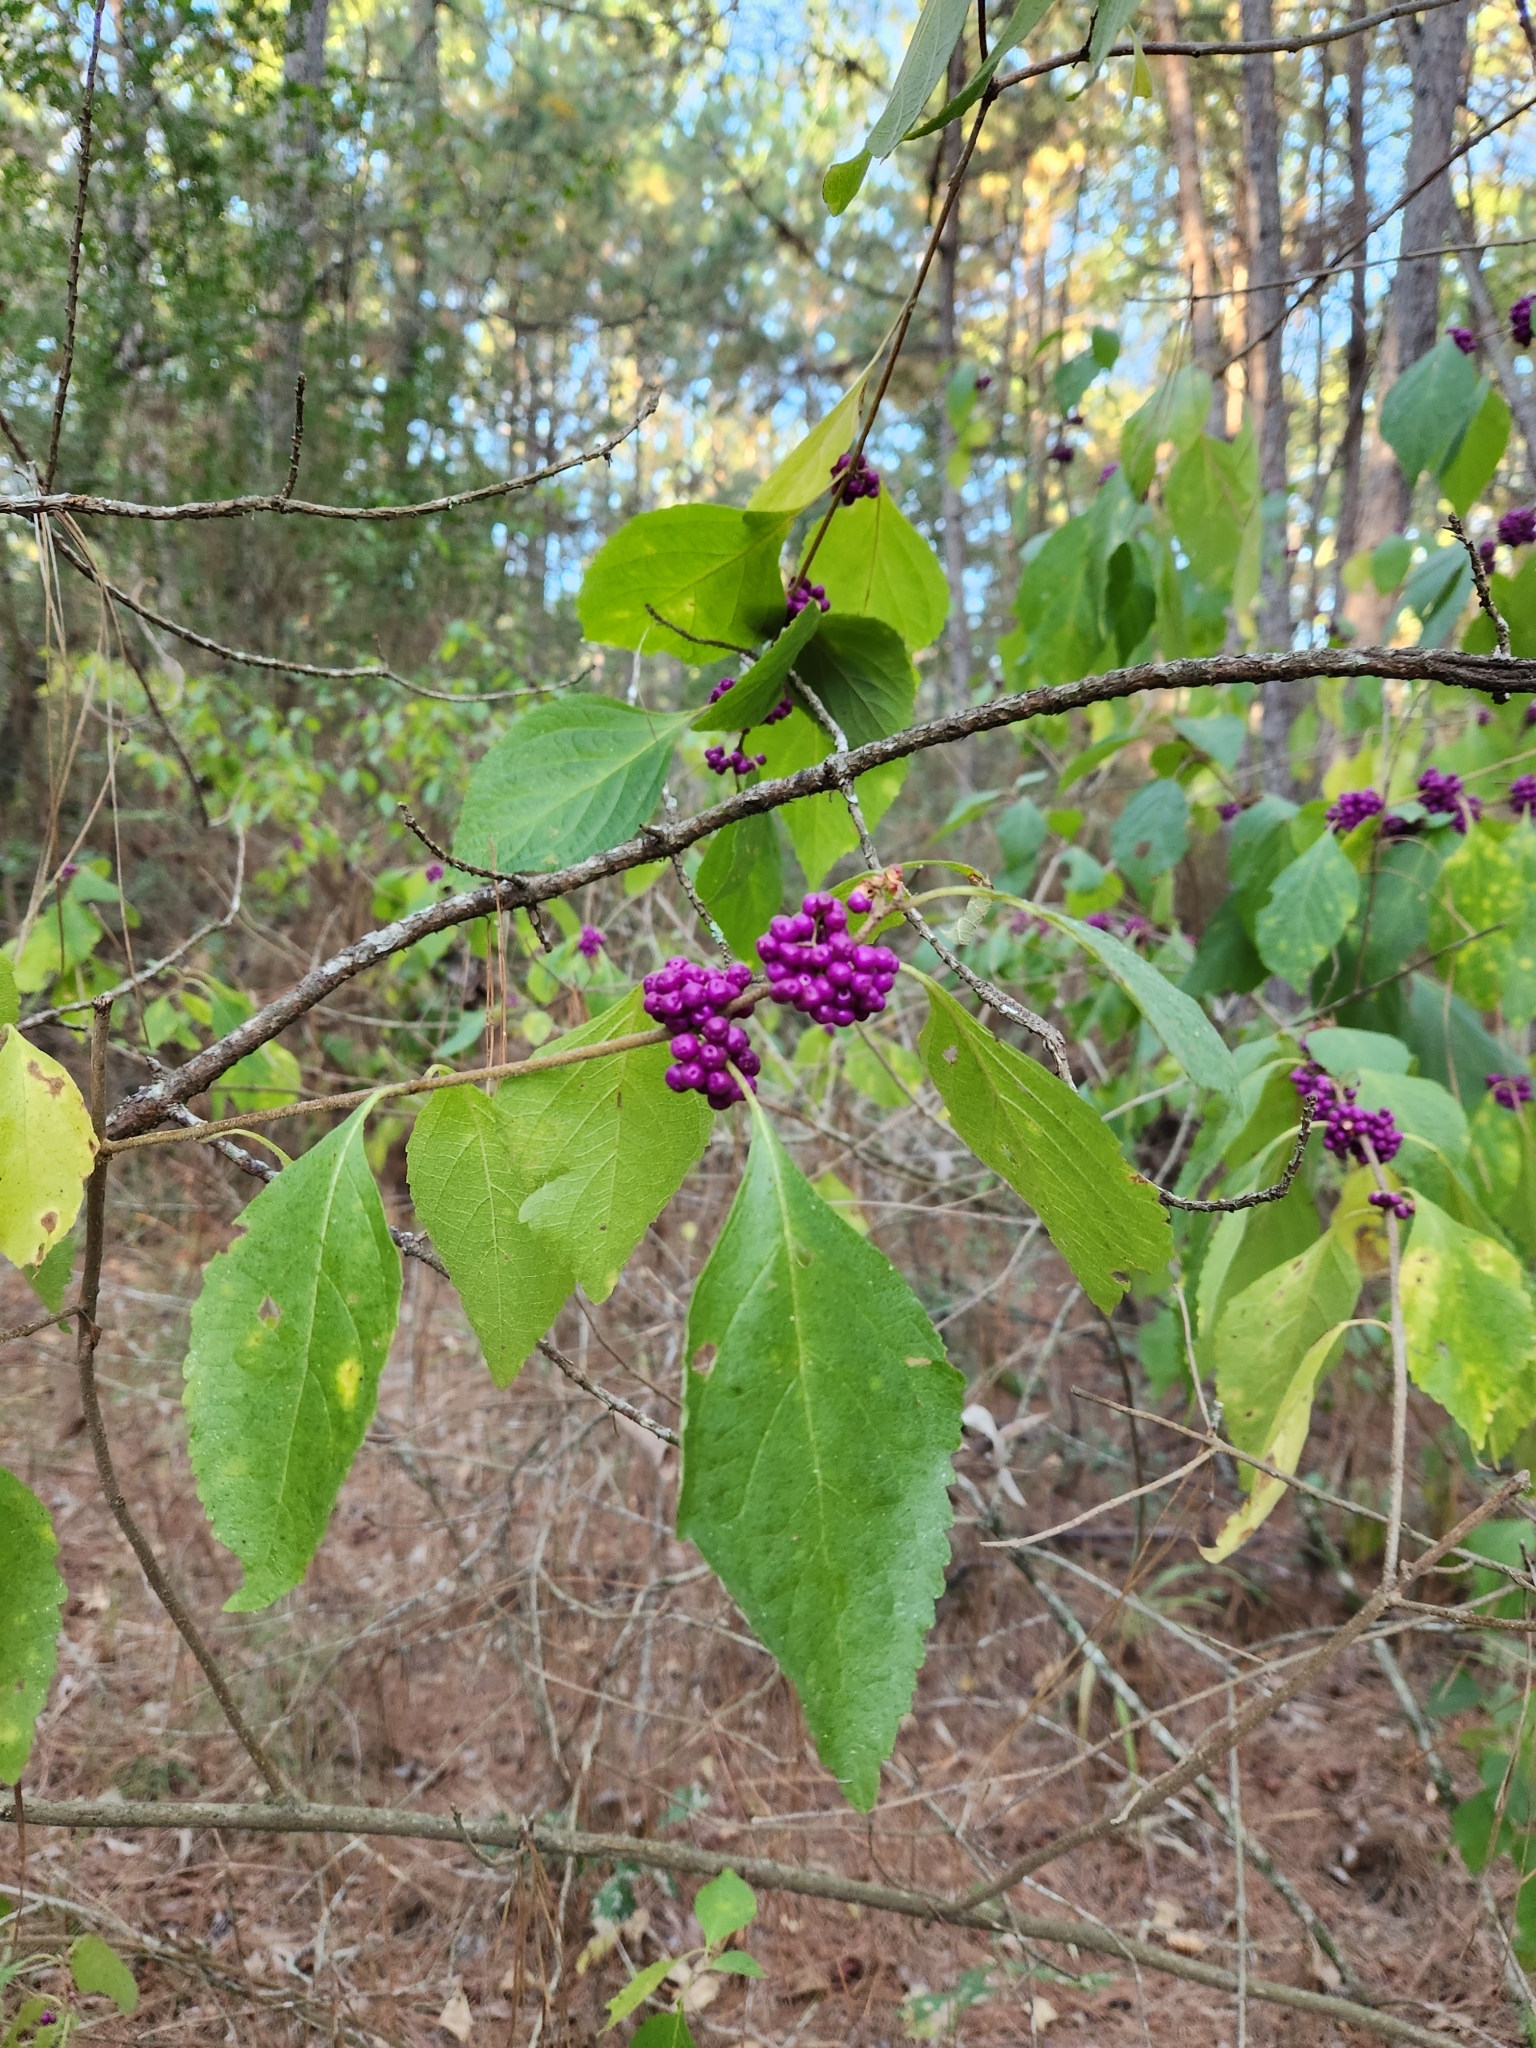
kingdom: Plantae
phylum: Tracheophyta
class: Magnoliopsida
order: Lamiales
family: Lamiaceae
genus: Callicarpa
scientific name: Callicarpa americana
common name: American beautyberry
